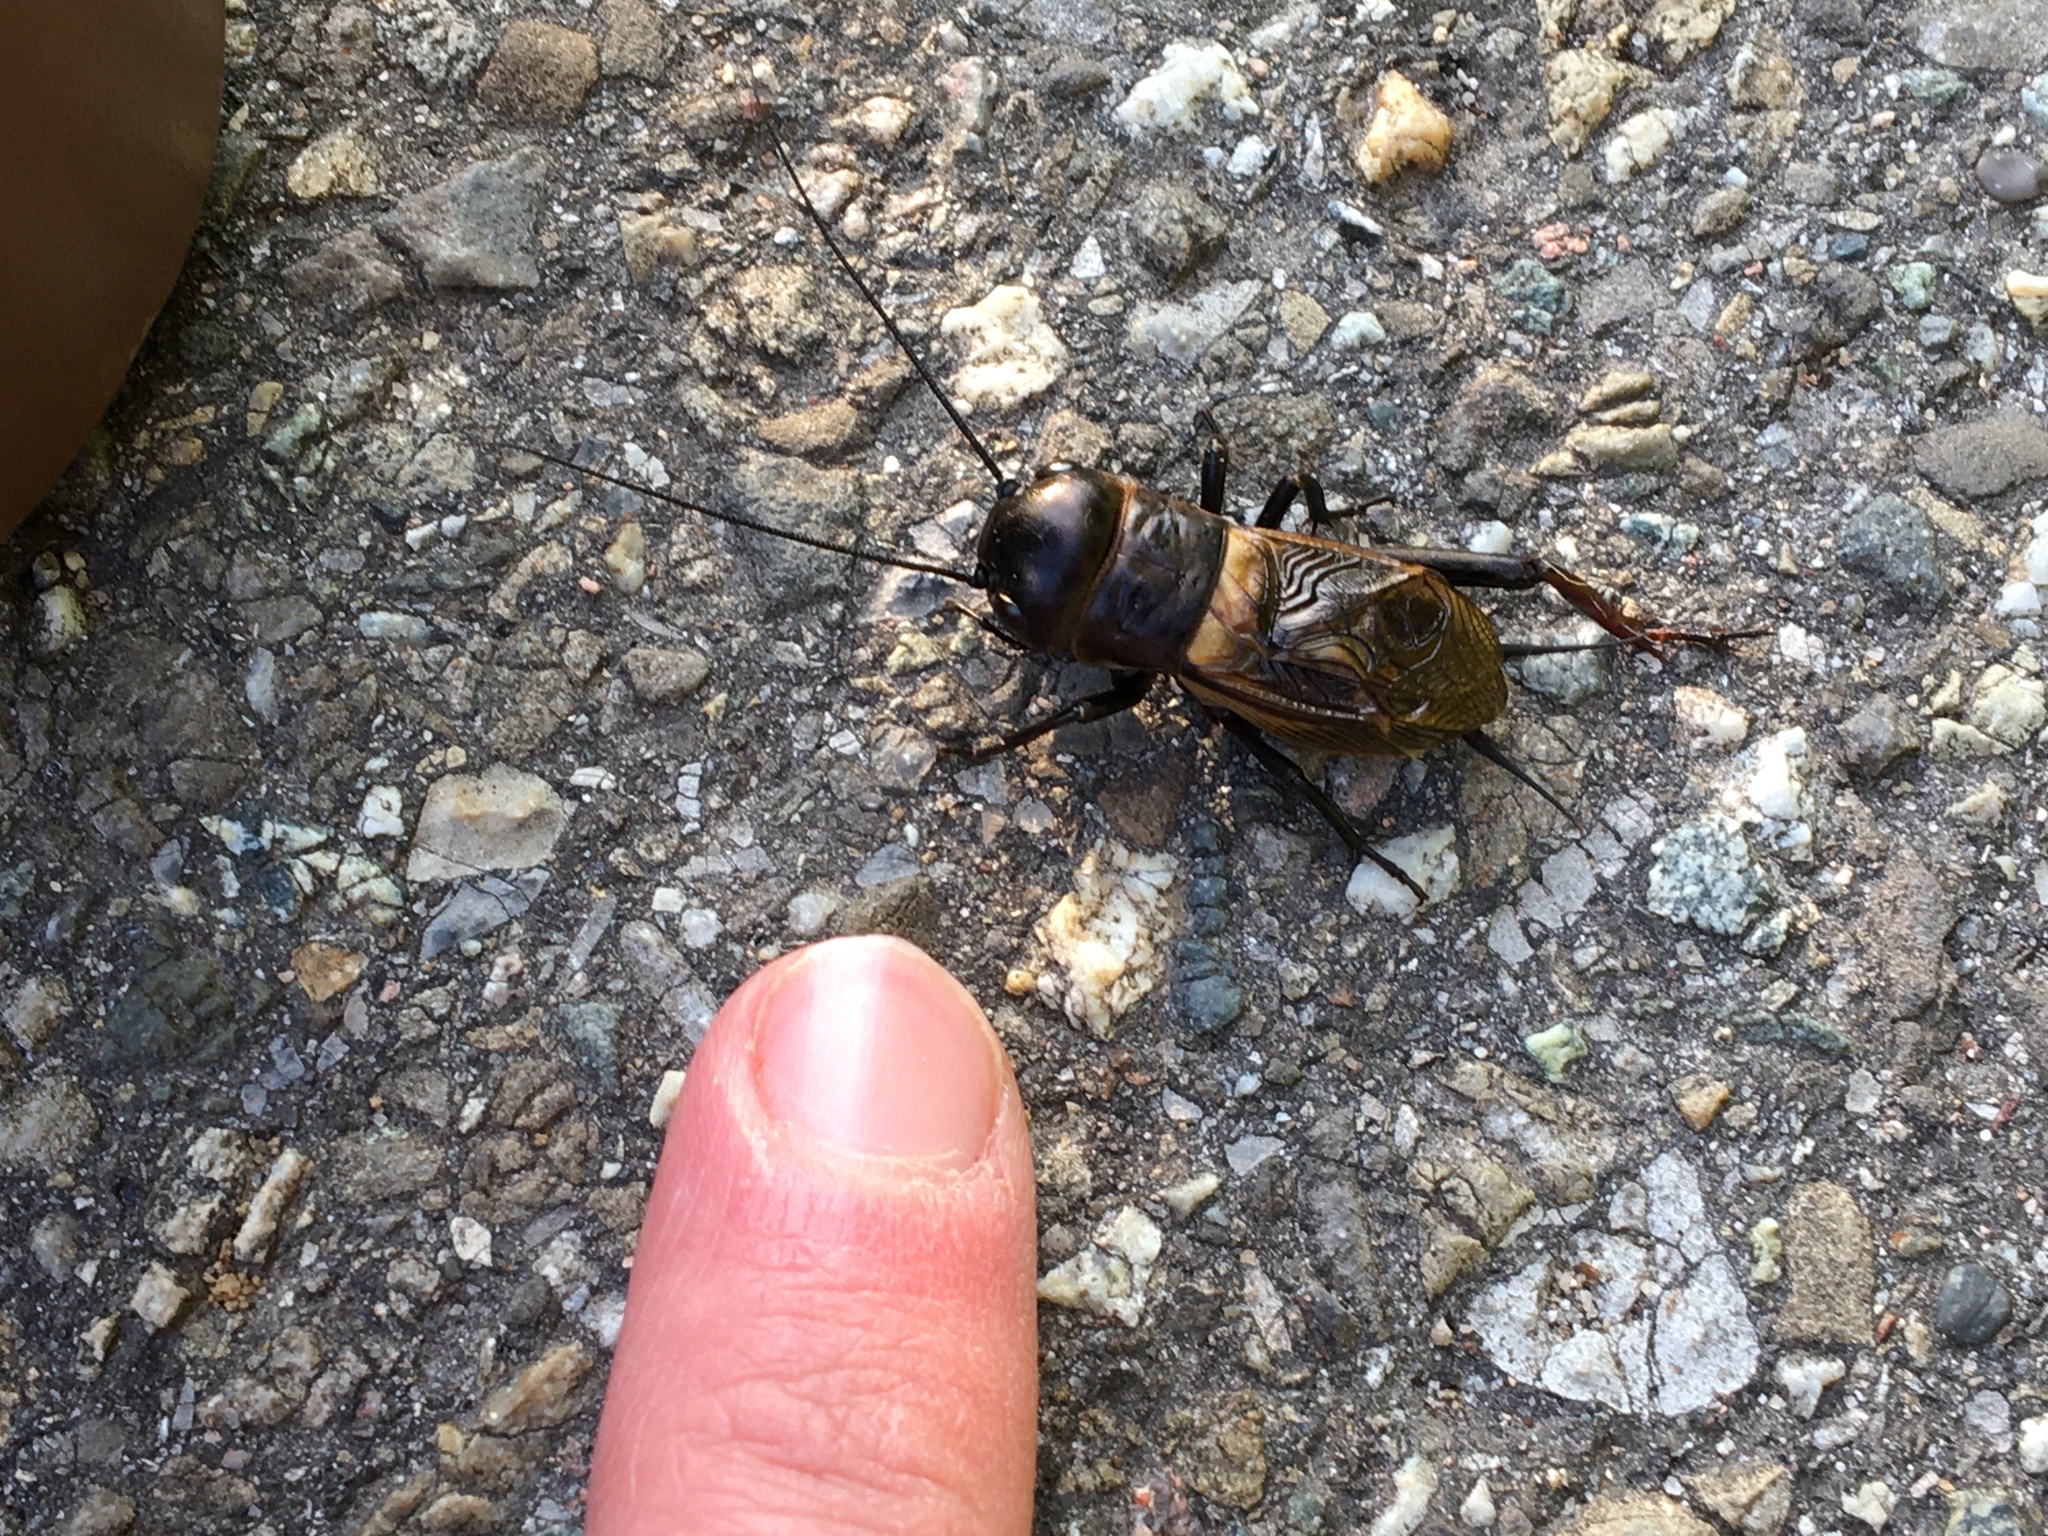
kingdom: Animalia
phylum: Arthropoda
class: Insecta
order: Orthoptera
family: Gryllidae
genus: Gryllus
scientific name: Gryllus campestris
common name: Field cricket
